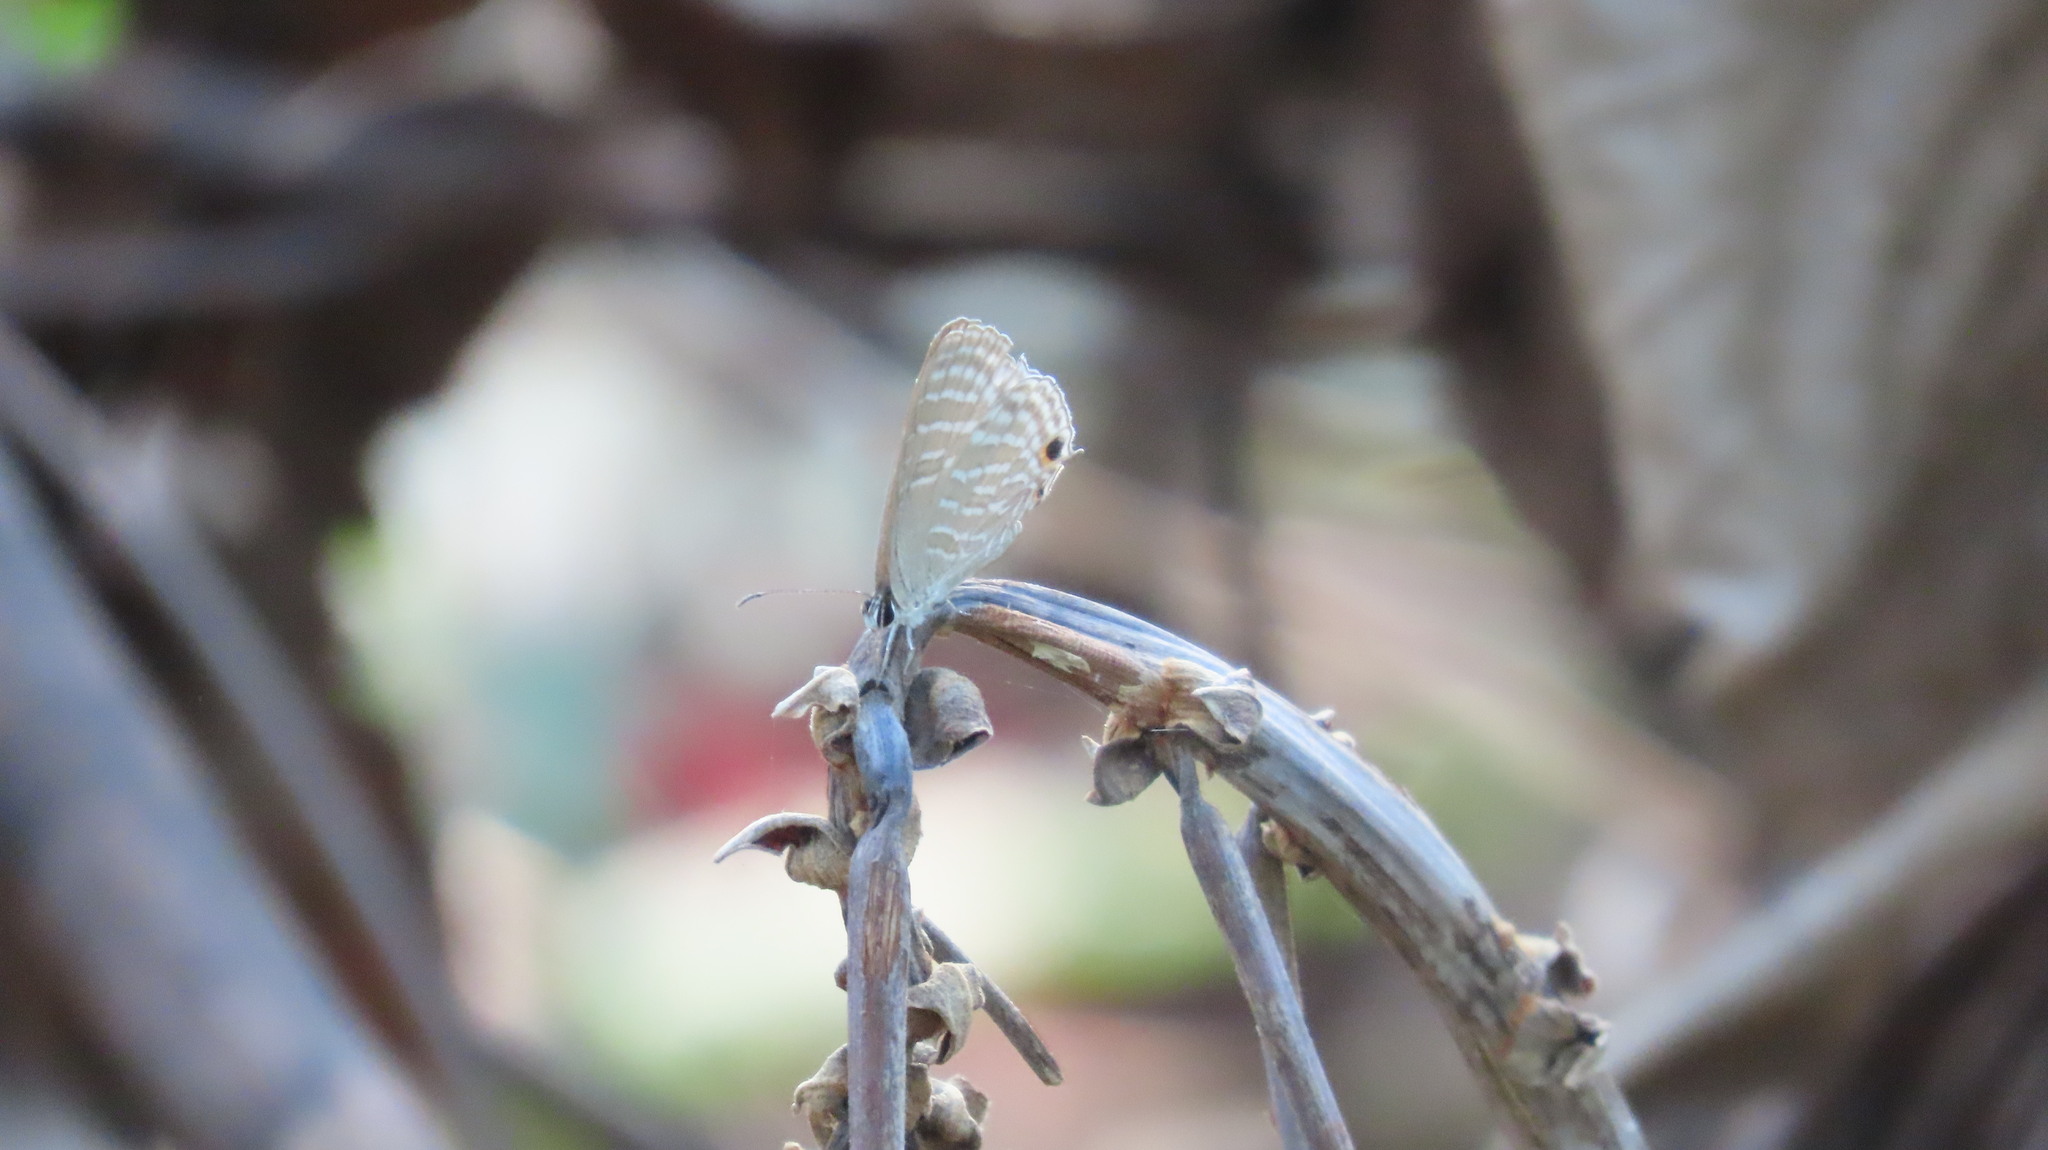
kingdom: Animalia
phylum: Arthropoda
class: Insecta
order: Lepidoptera
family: Lycaenidae
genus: Jamides
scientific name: Jamides celeno
